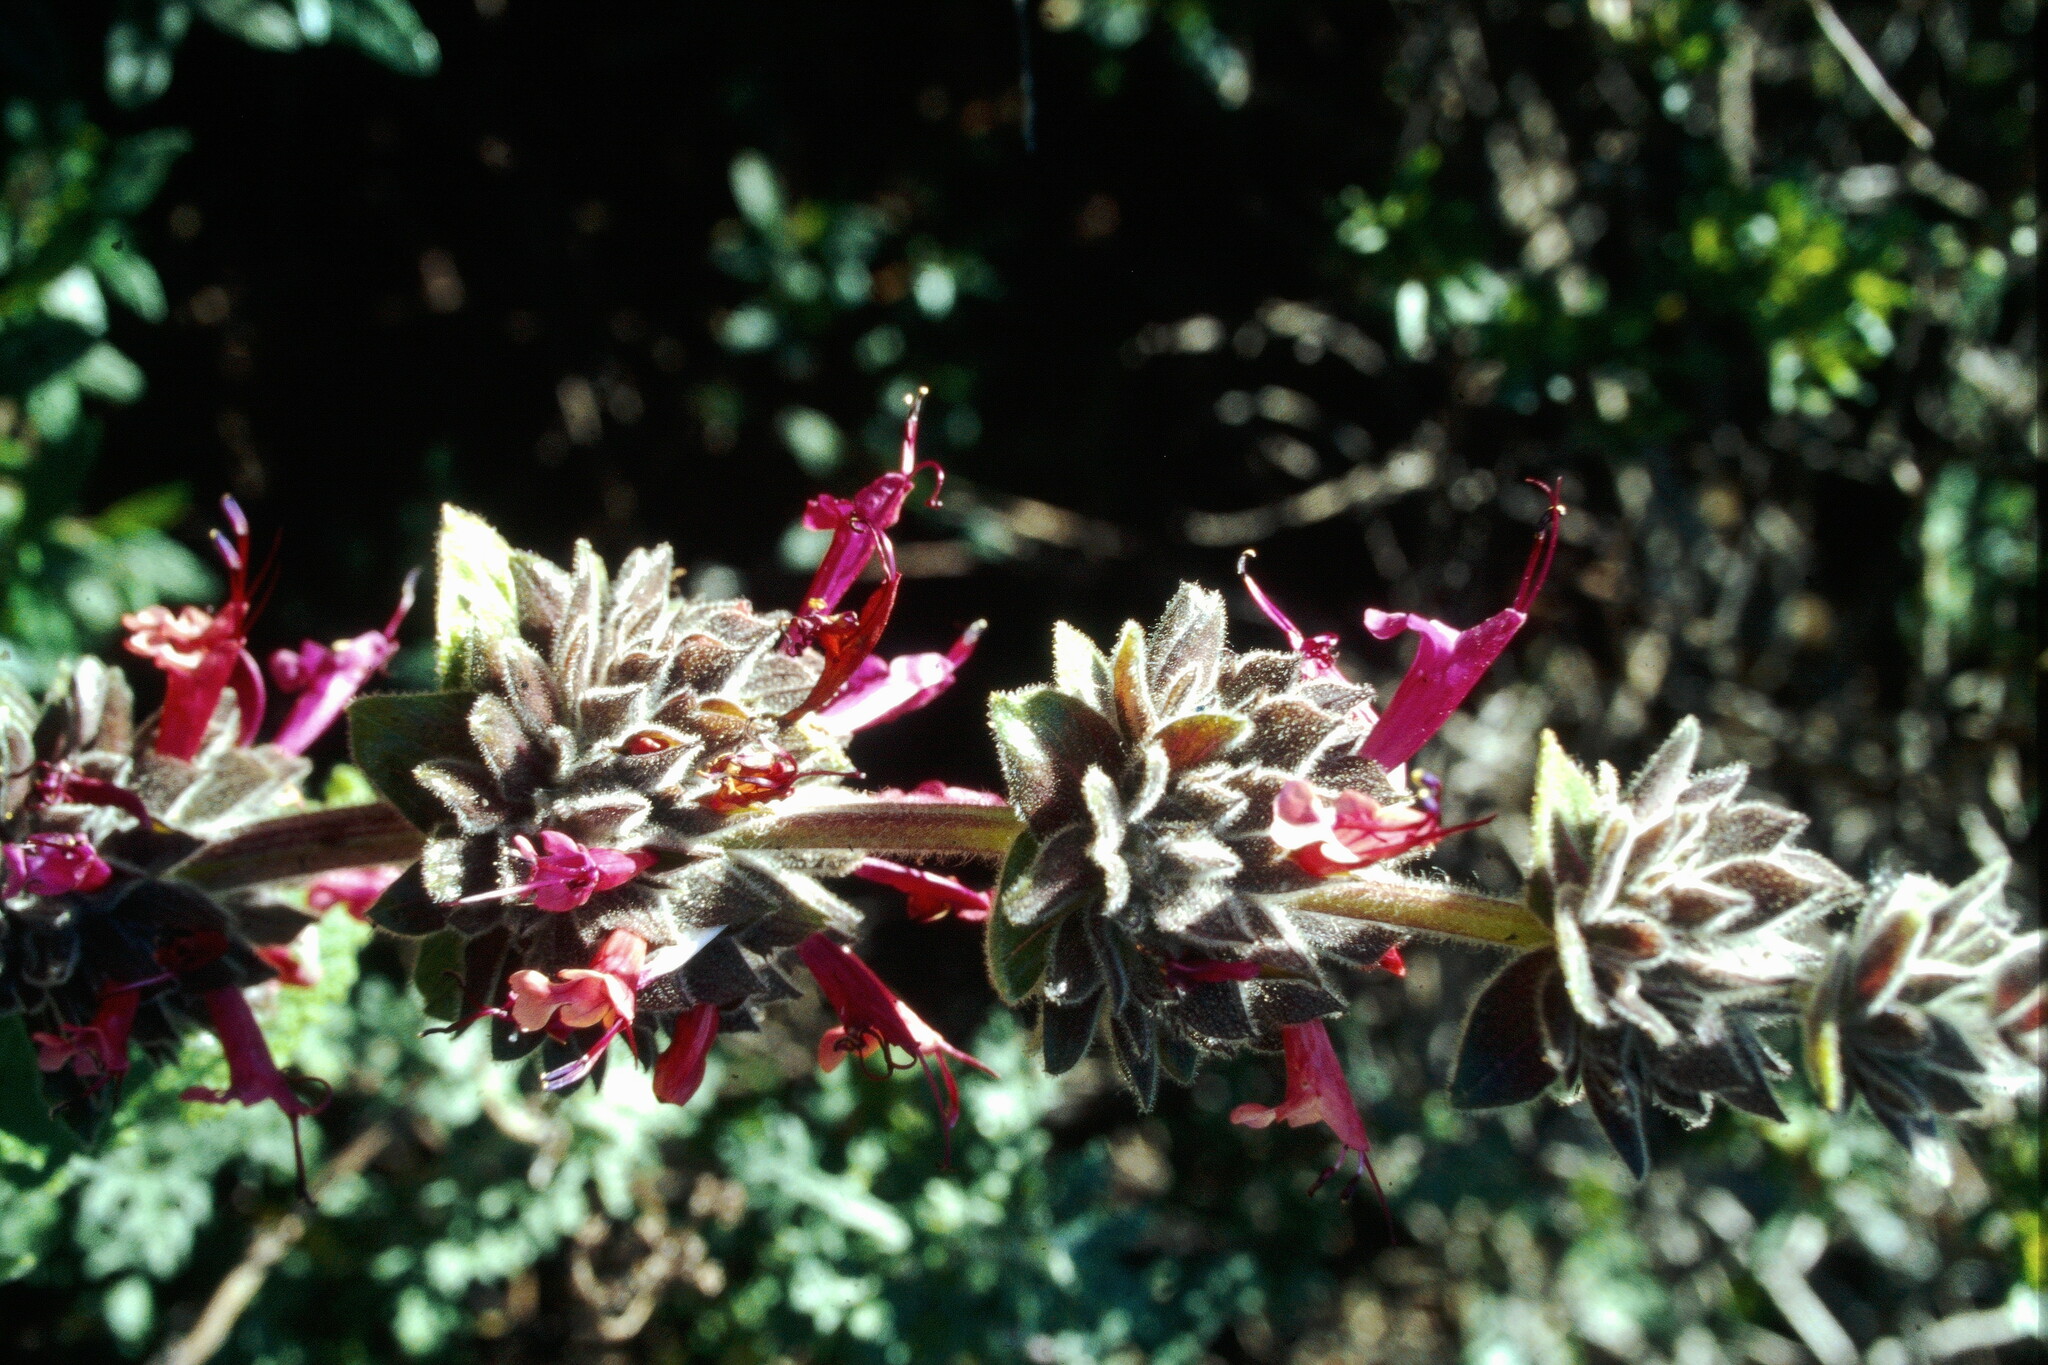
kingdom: Plantae
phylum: Tracheophyta
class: Magnoliopsida
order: Lamiales
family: Lamiaceae
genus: Salvia
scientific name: Salvia spathacea
